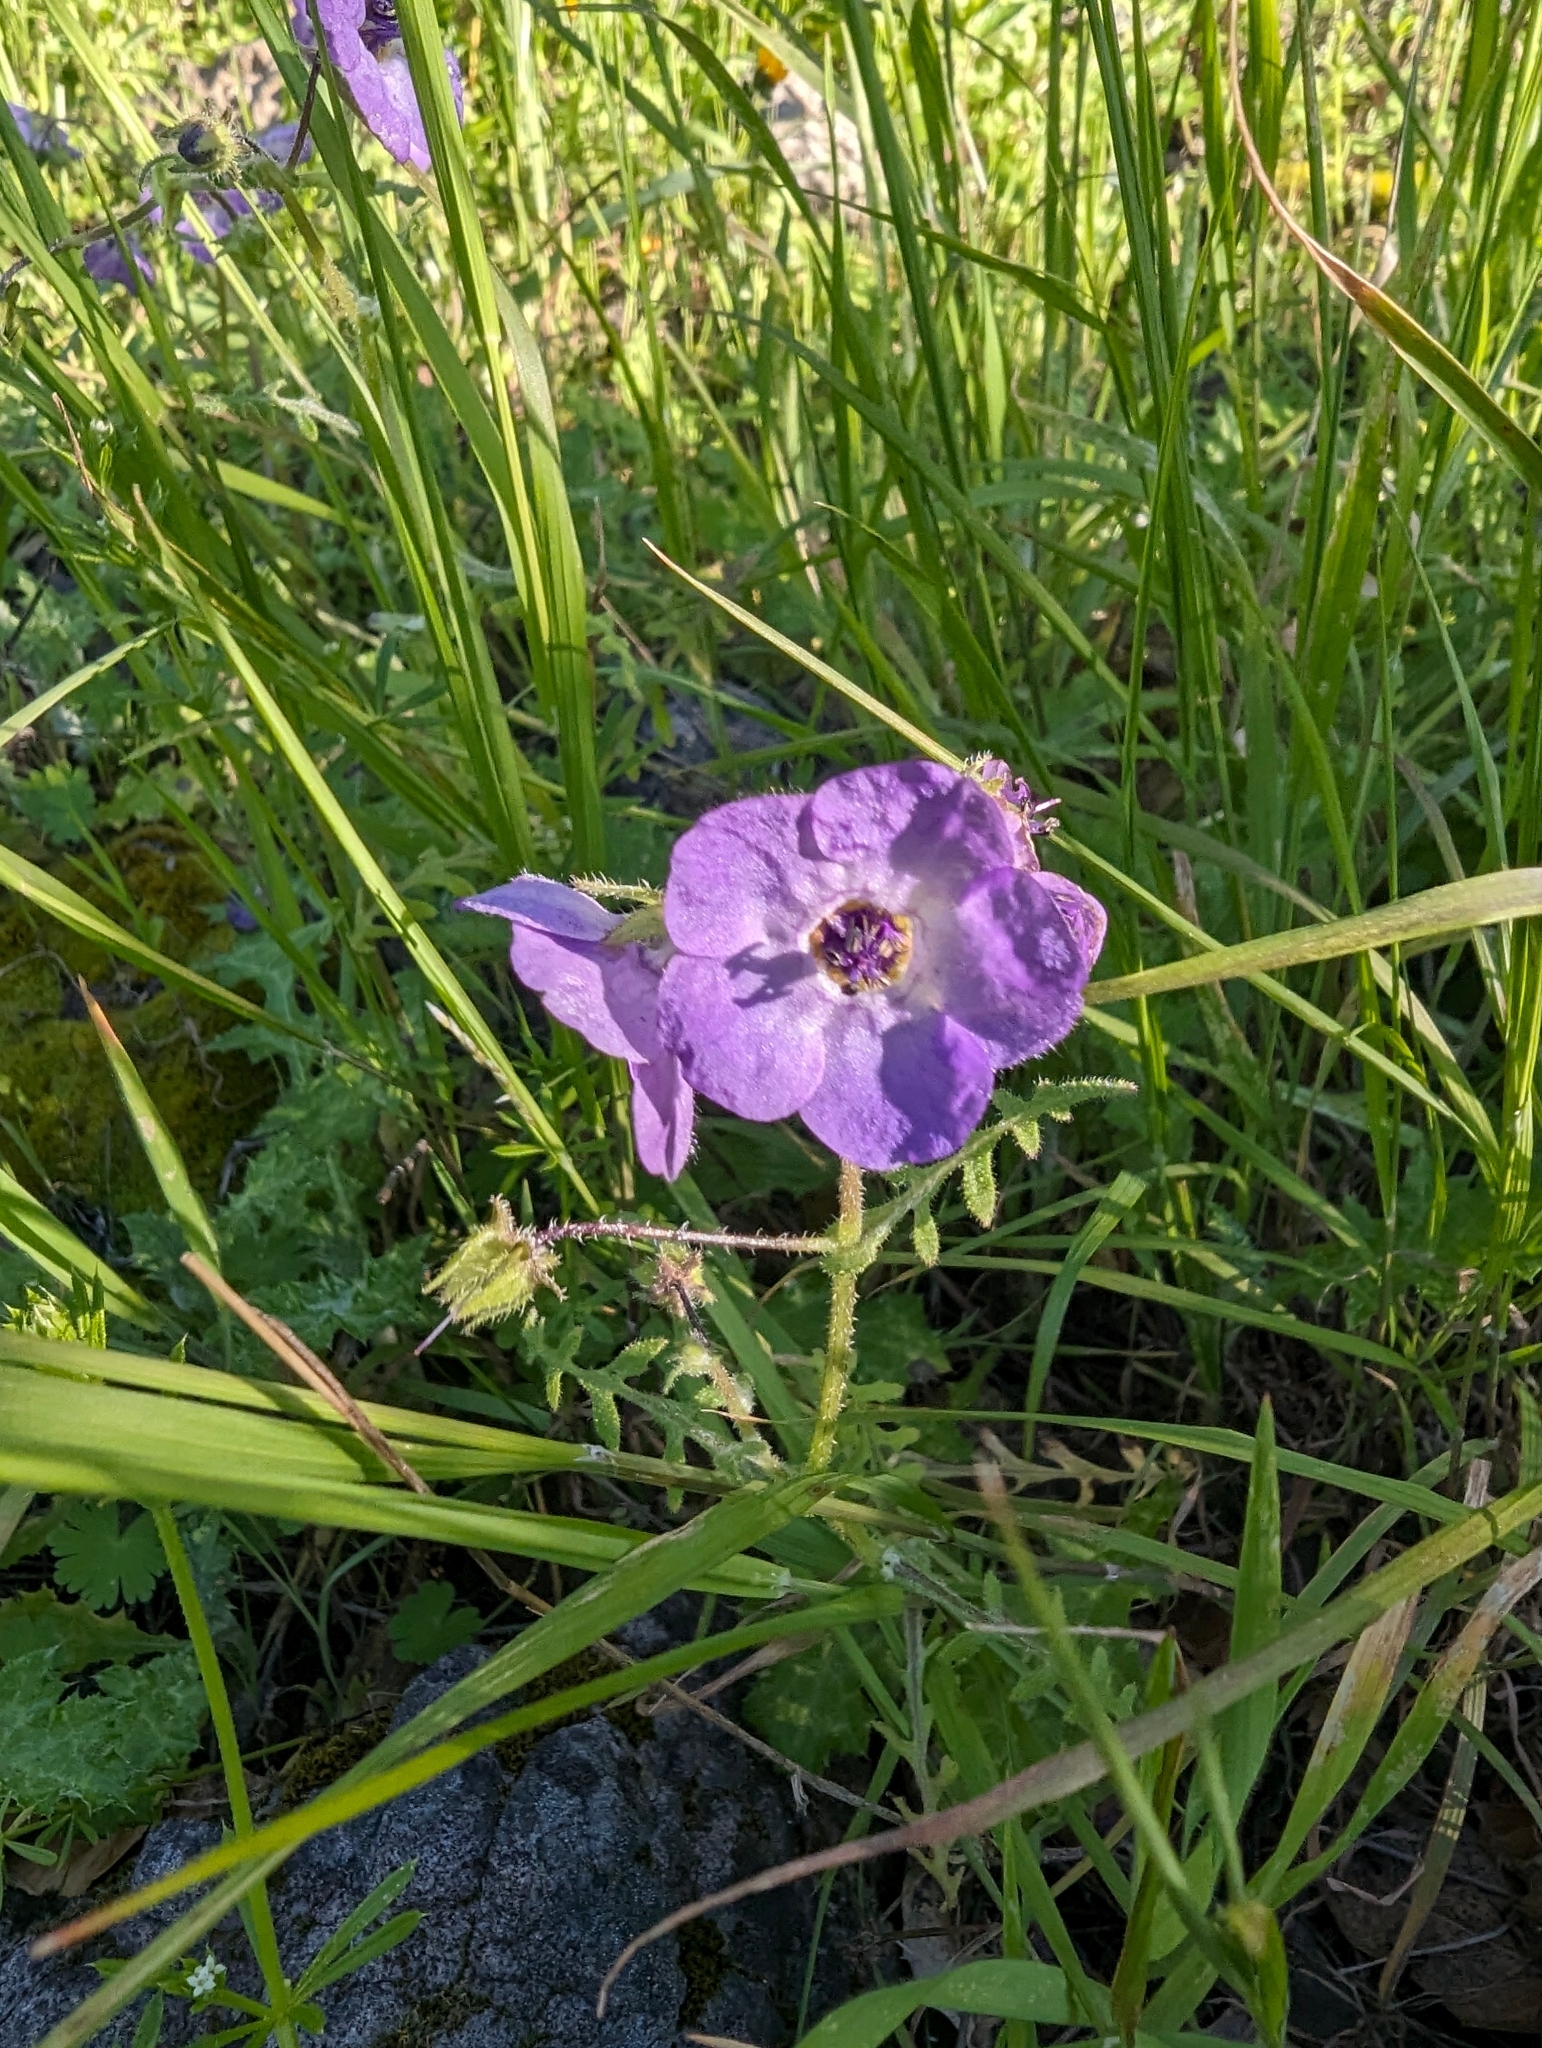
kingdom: Plantae
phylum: Tracheophyta
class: Magnoliopsida
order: Boraginales
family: Hydrophyllaceae
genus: Pholistoma
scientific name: Pholistoma auritum
